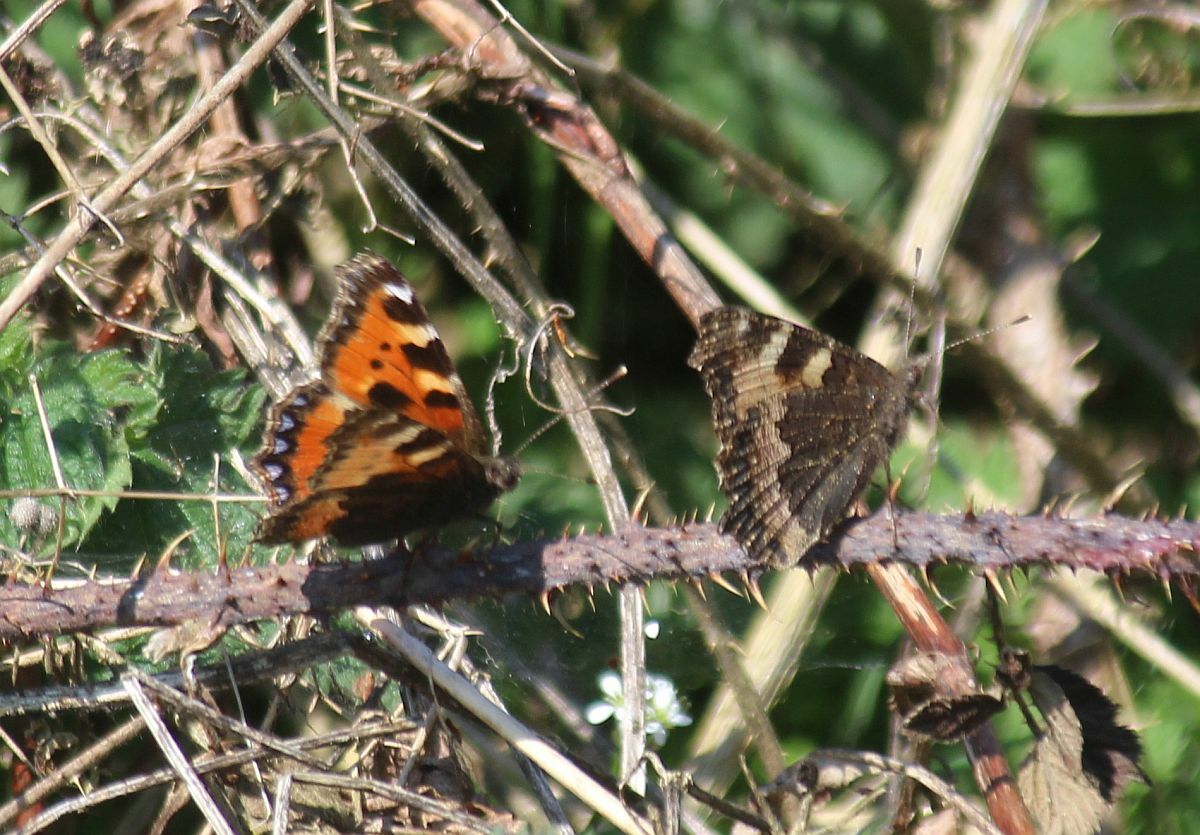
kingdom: Animalia
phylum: Arthropoda
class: Insecta
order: Lepidoptera
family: Nymphalidae
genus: Aglais
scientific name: Aglais urticae
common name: Small tortoiseshell
